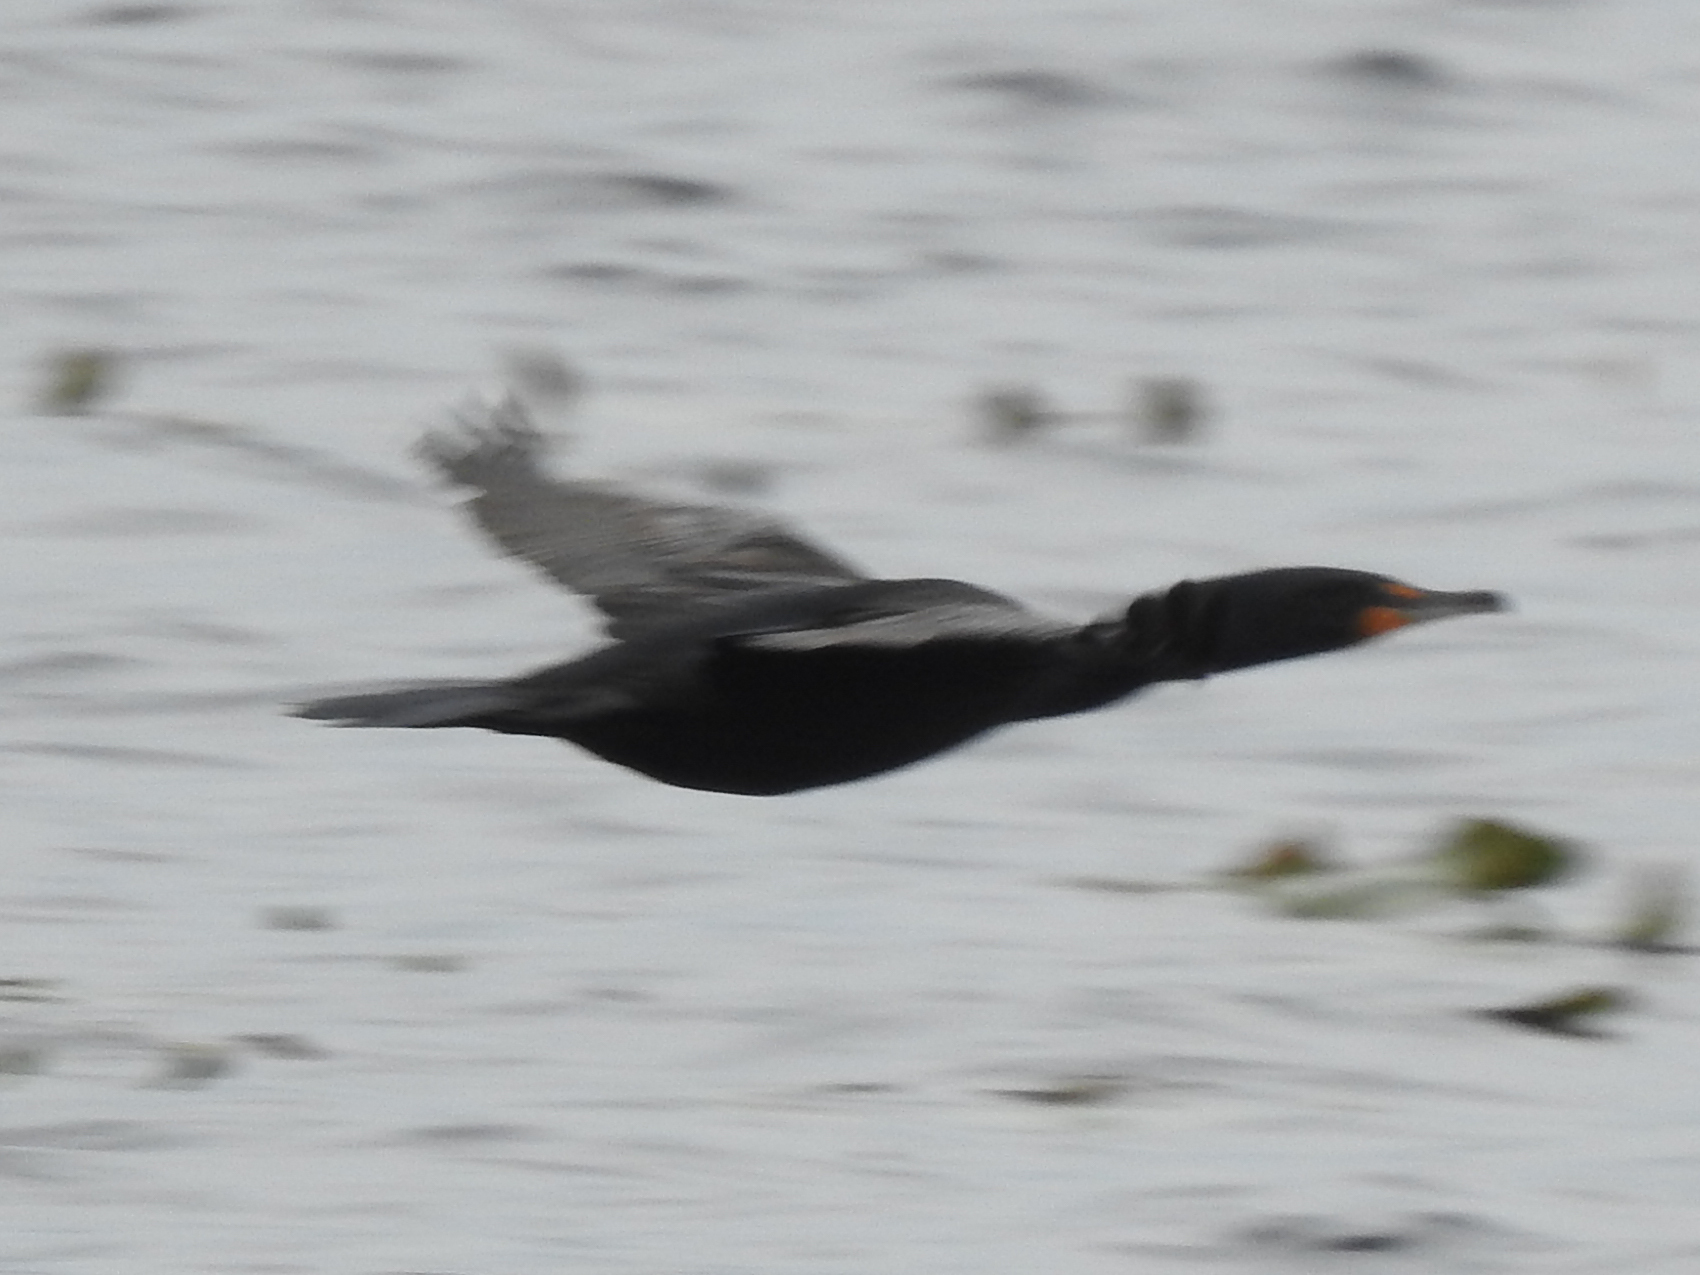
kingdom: Animalia
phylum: Chordata
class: Aves
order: Suliformes
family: Phalacrocoracidae
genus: Phalacrocorax
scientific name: Phalacrocorax auritus
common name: Double-crested cormorant
